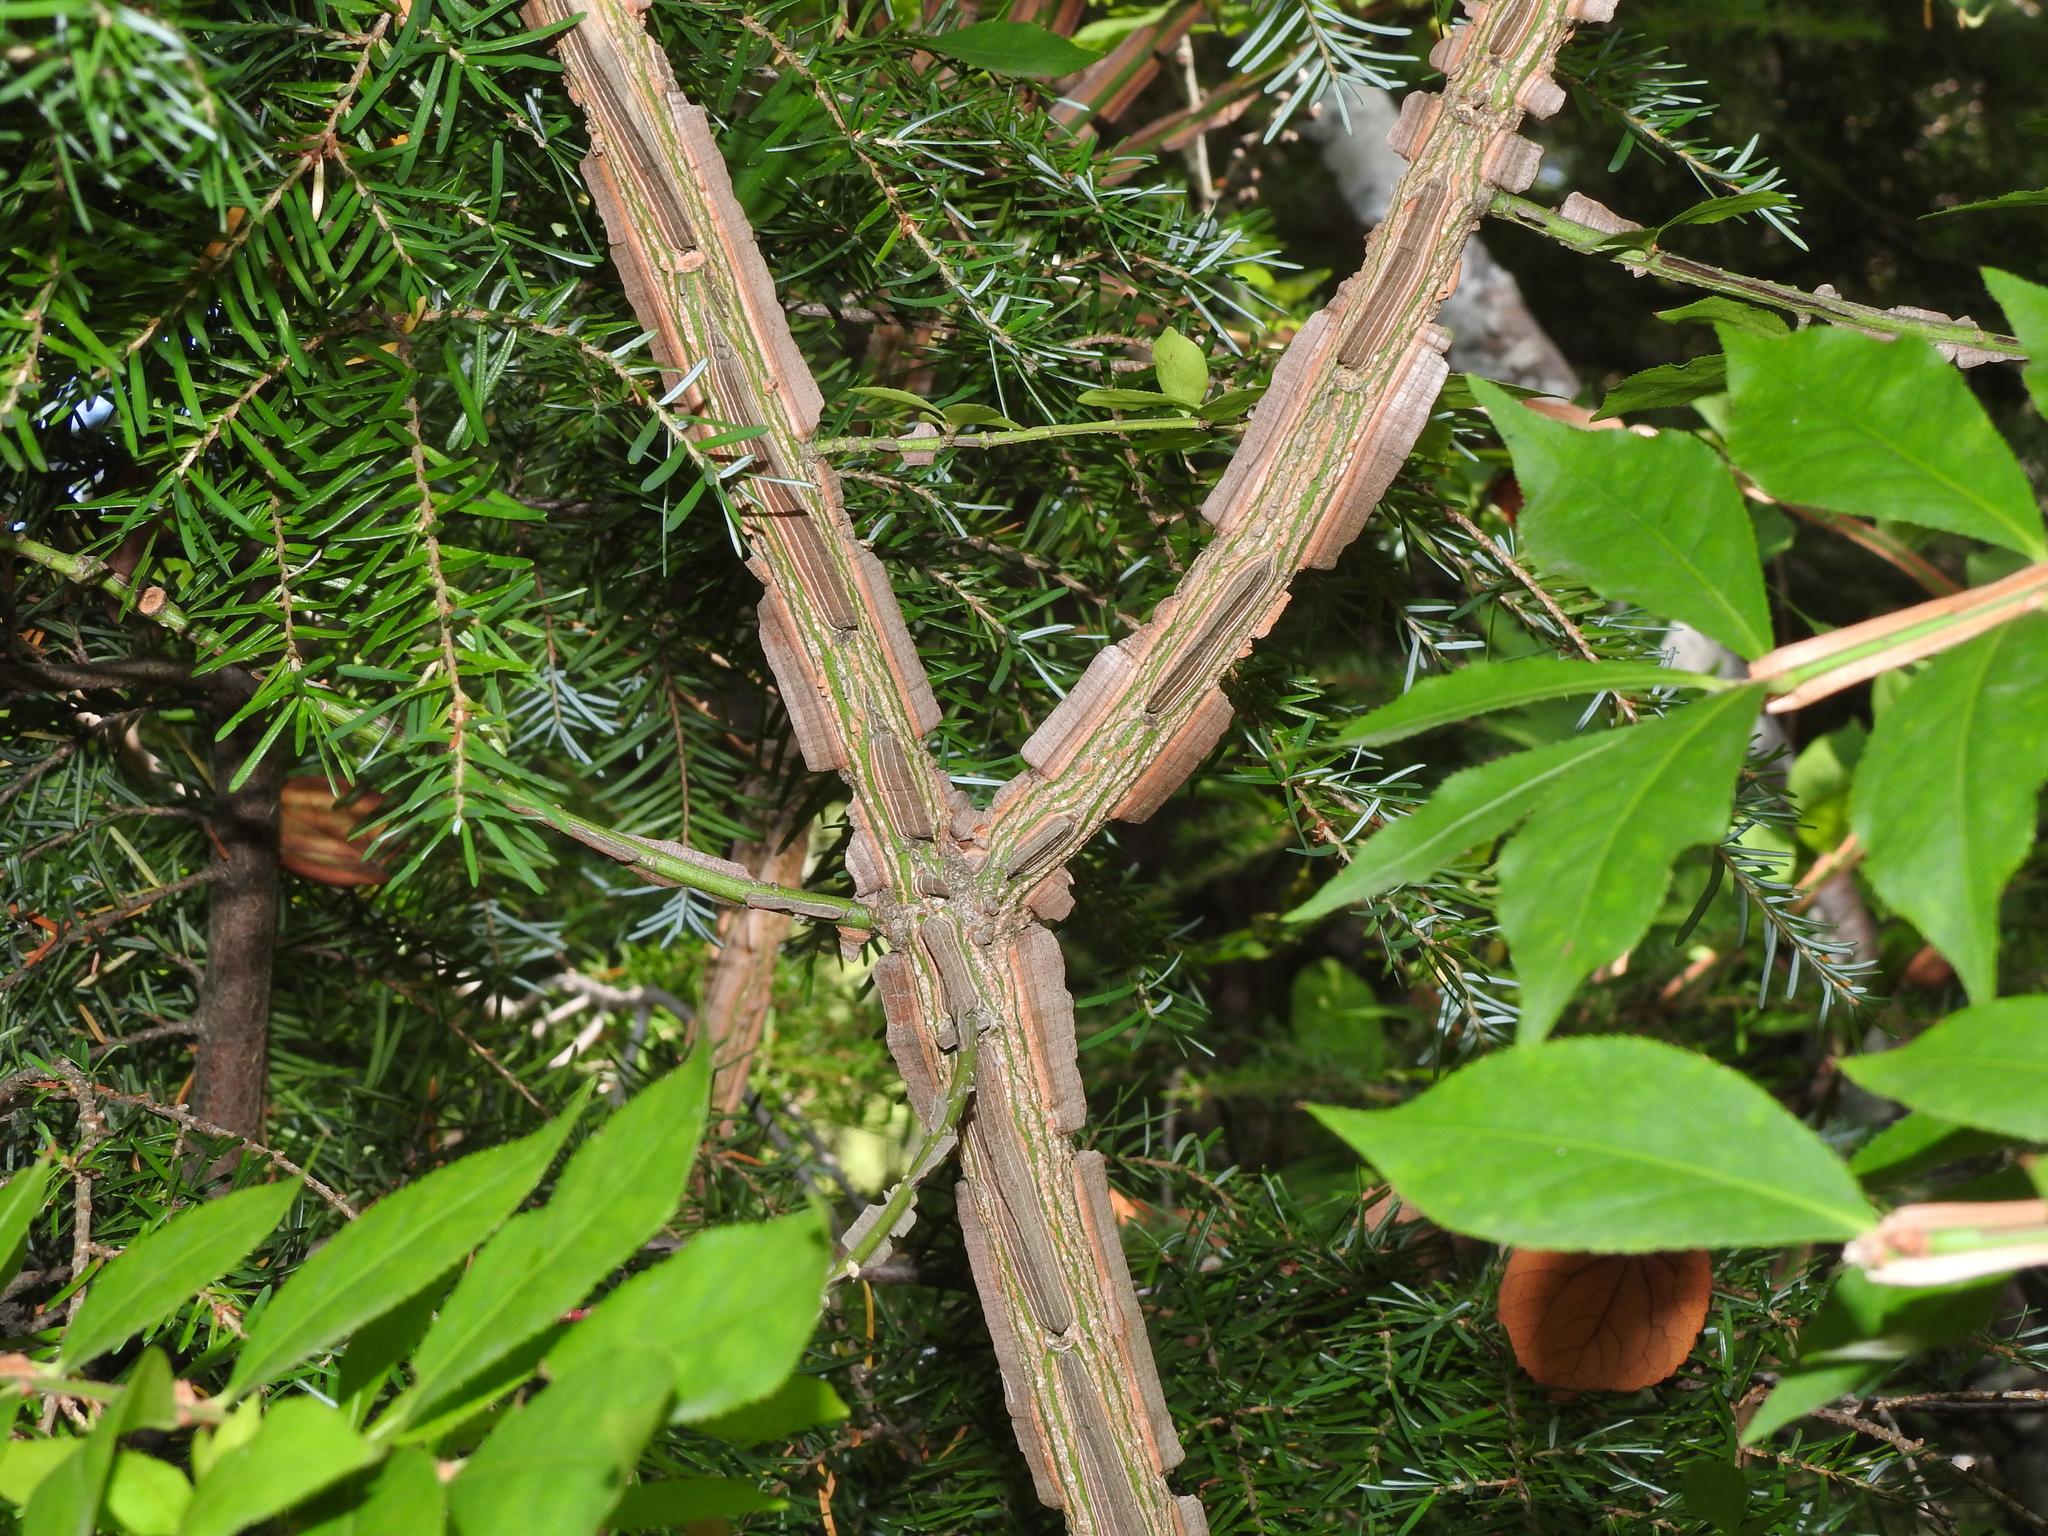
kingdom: Plantae
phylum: Tracheophyta
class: Magnoliopsida
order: Celastrales
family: Celastraceae
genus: Euonymus
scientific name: Euonymus alatus
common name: Winged euonymus
